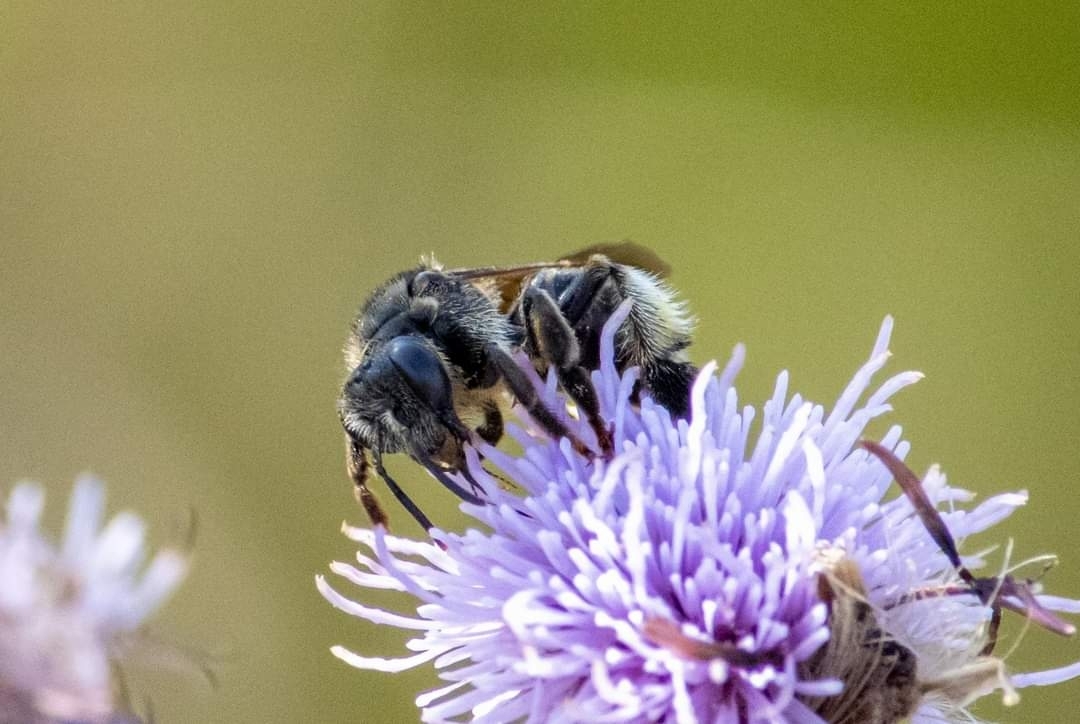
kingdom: Animalia
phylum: Arthropoda
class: Insecta
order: Hymenoptera
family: Melittidae
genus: Macropis
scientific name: Macropis europaea
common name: Yellow loosestrife bee
